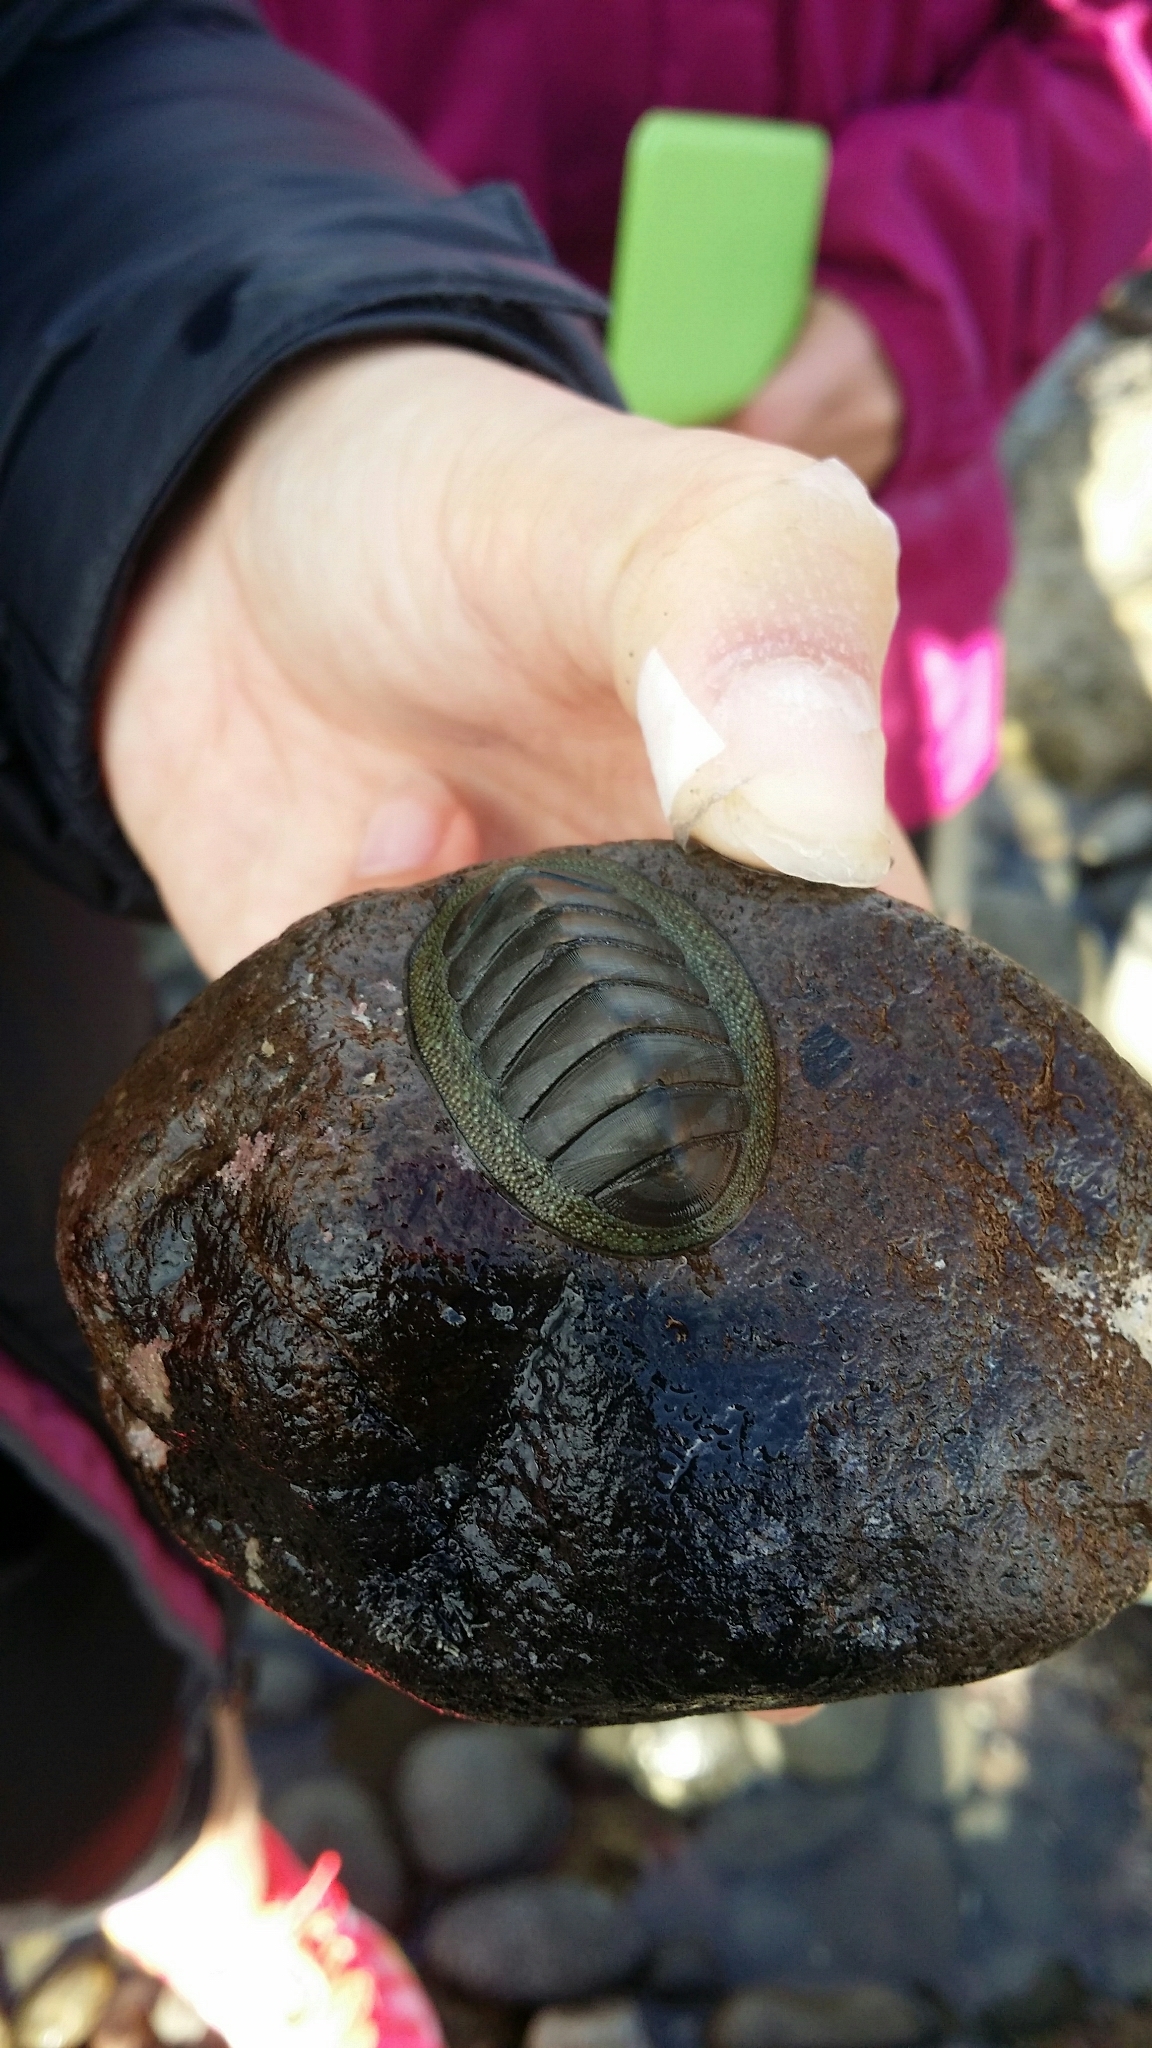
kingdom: Animalia
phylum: Mollusca
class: Polyplacophora
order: Chitonida
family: Chitonidae
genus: Chiton
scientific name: Chiton glaucus
